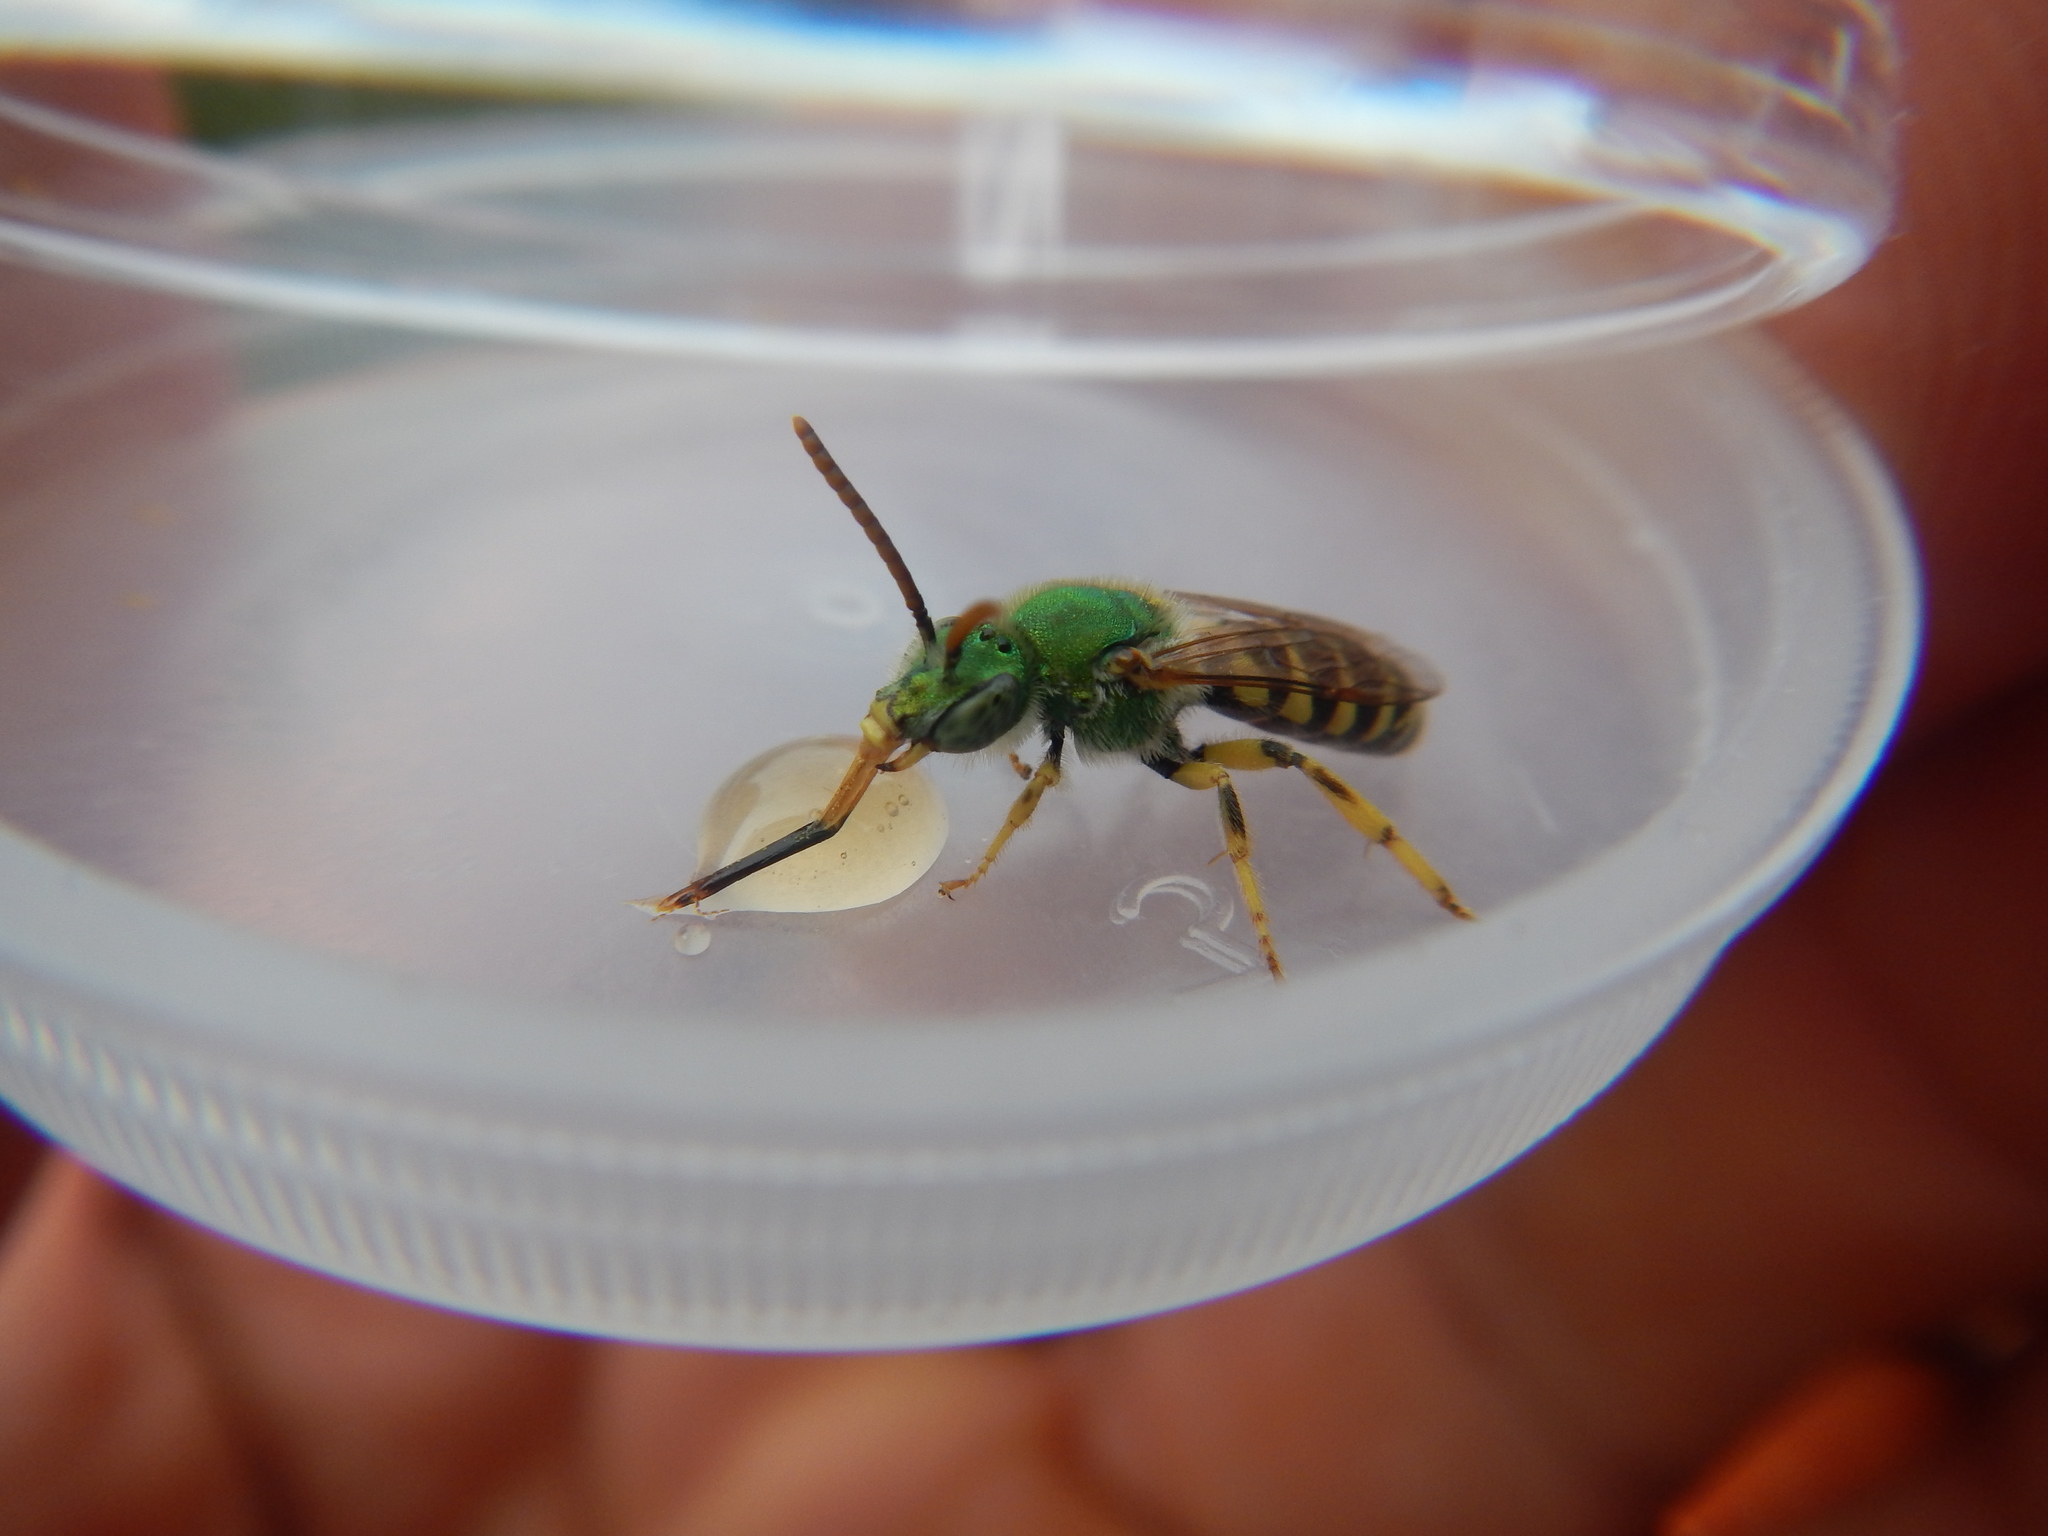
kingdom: Animalia
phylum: Arthropoda
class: Insecta
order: Hymenoptera
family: Halictidae
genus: Agapostemon
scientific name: Agapostemon virescens
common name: Bicolored striped sweat bee
